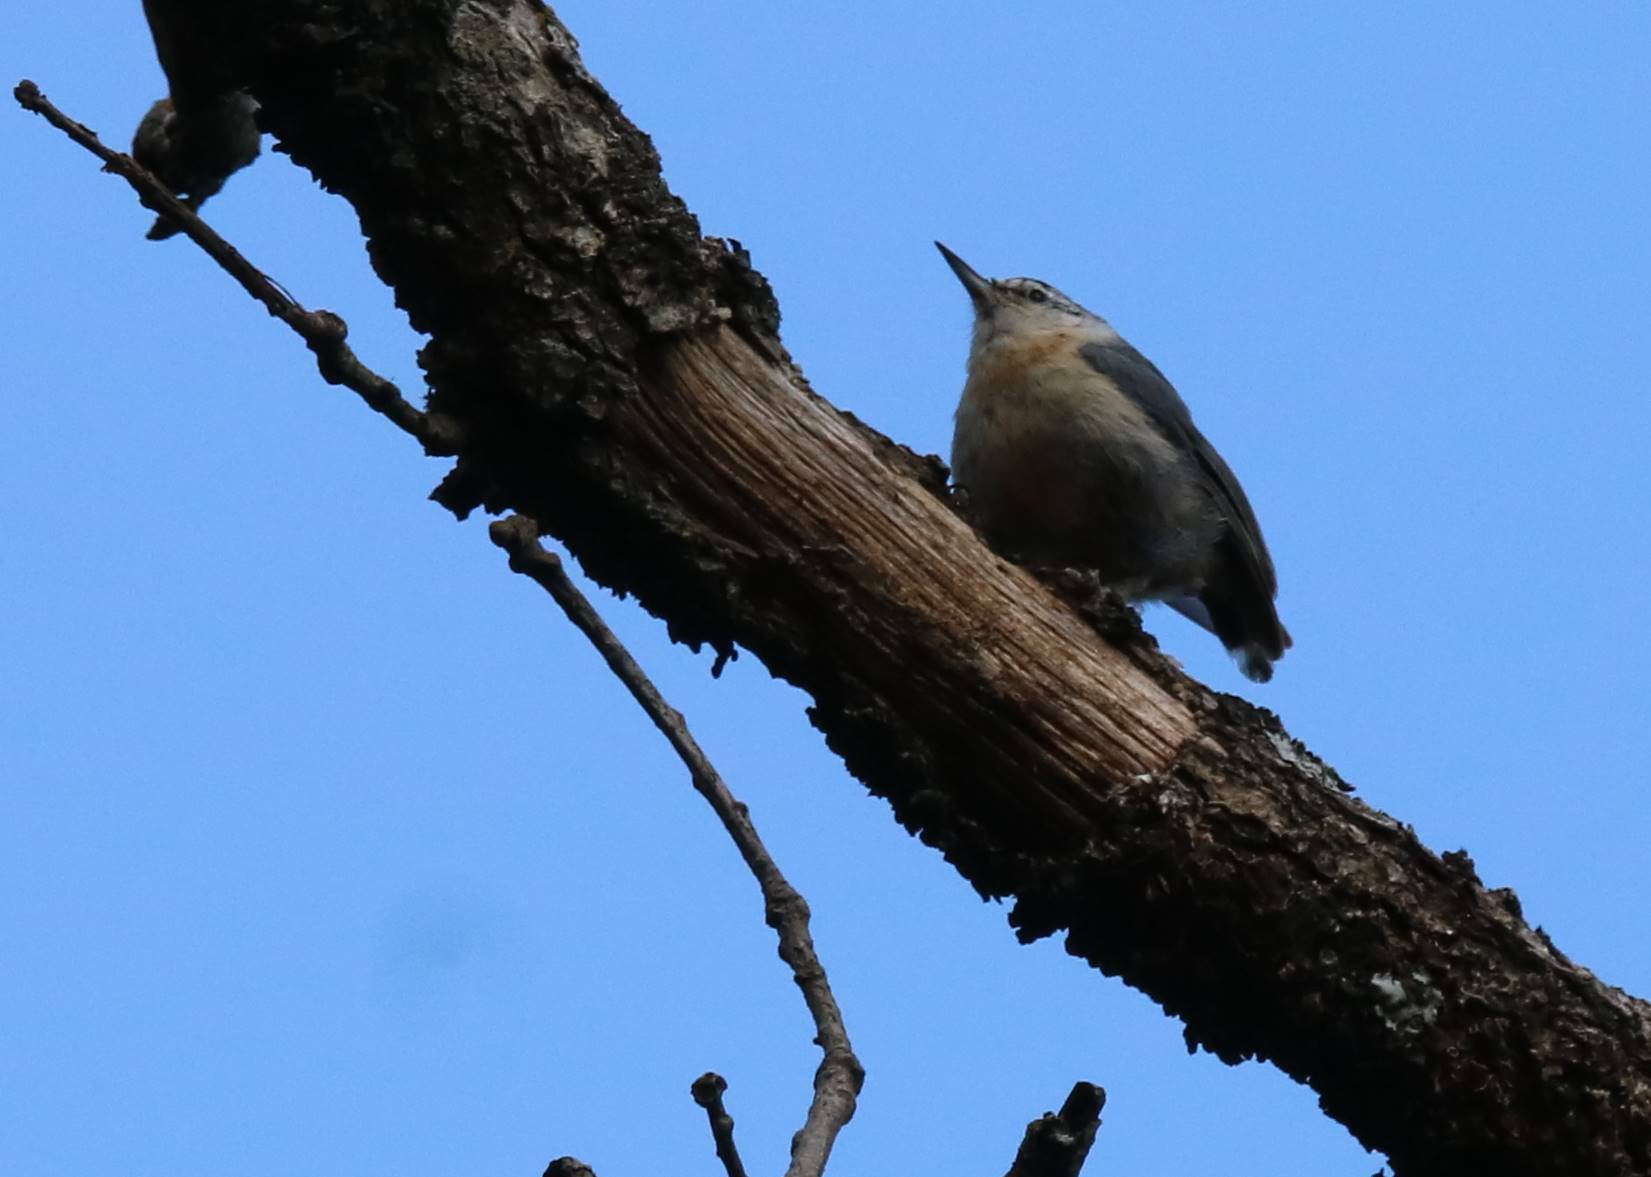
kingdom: Animalia
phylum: Chordata
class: Aves
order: Passeriformes
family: Sittidae
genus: Sitta
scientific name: Sitta ledanti
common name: Algerian nuthatch
